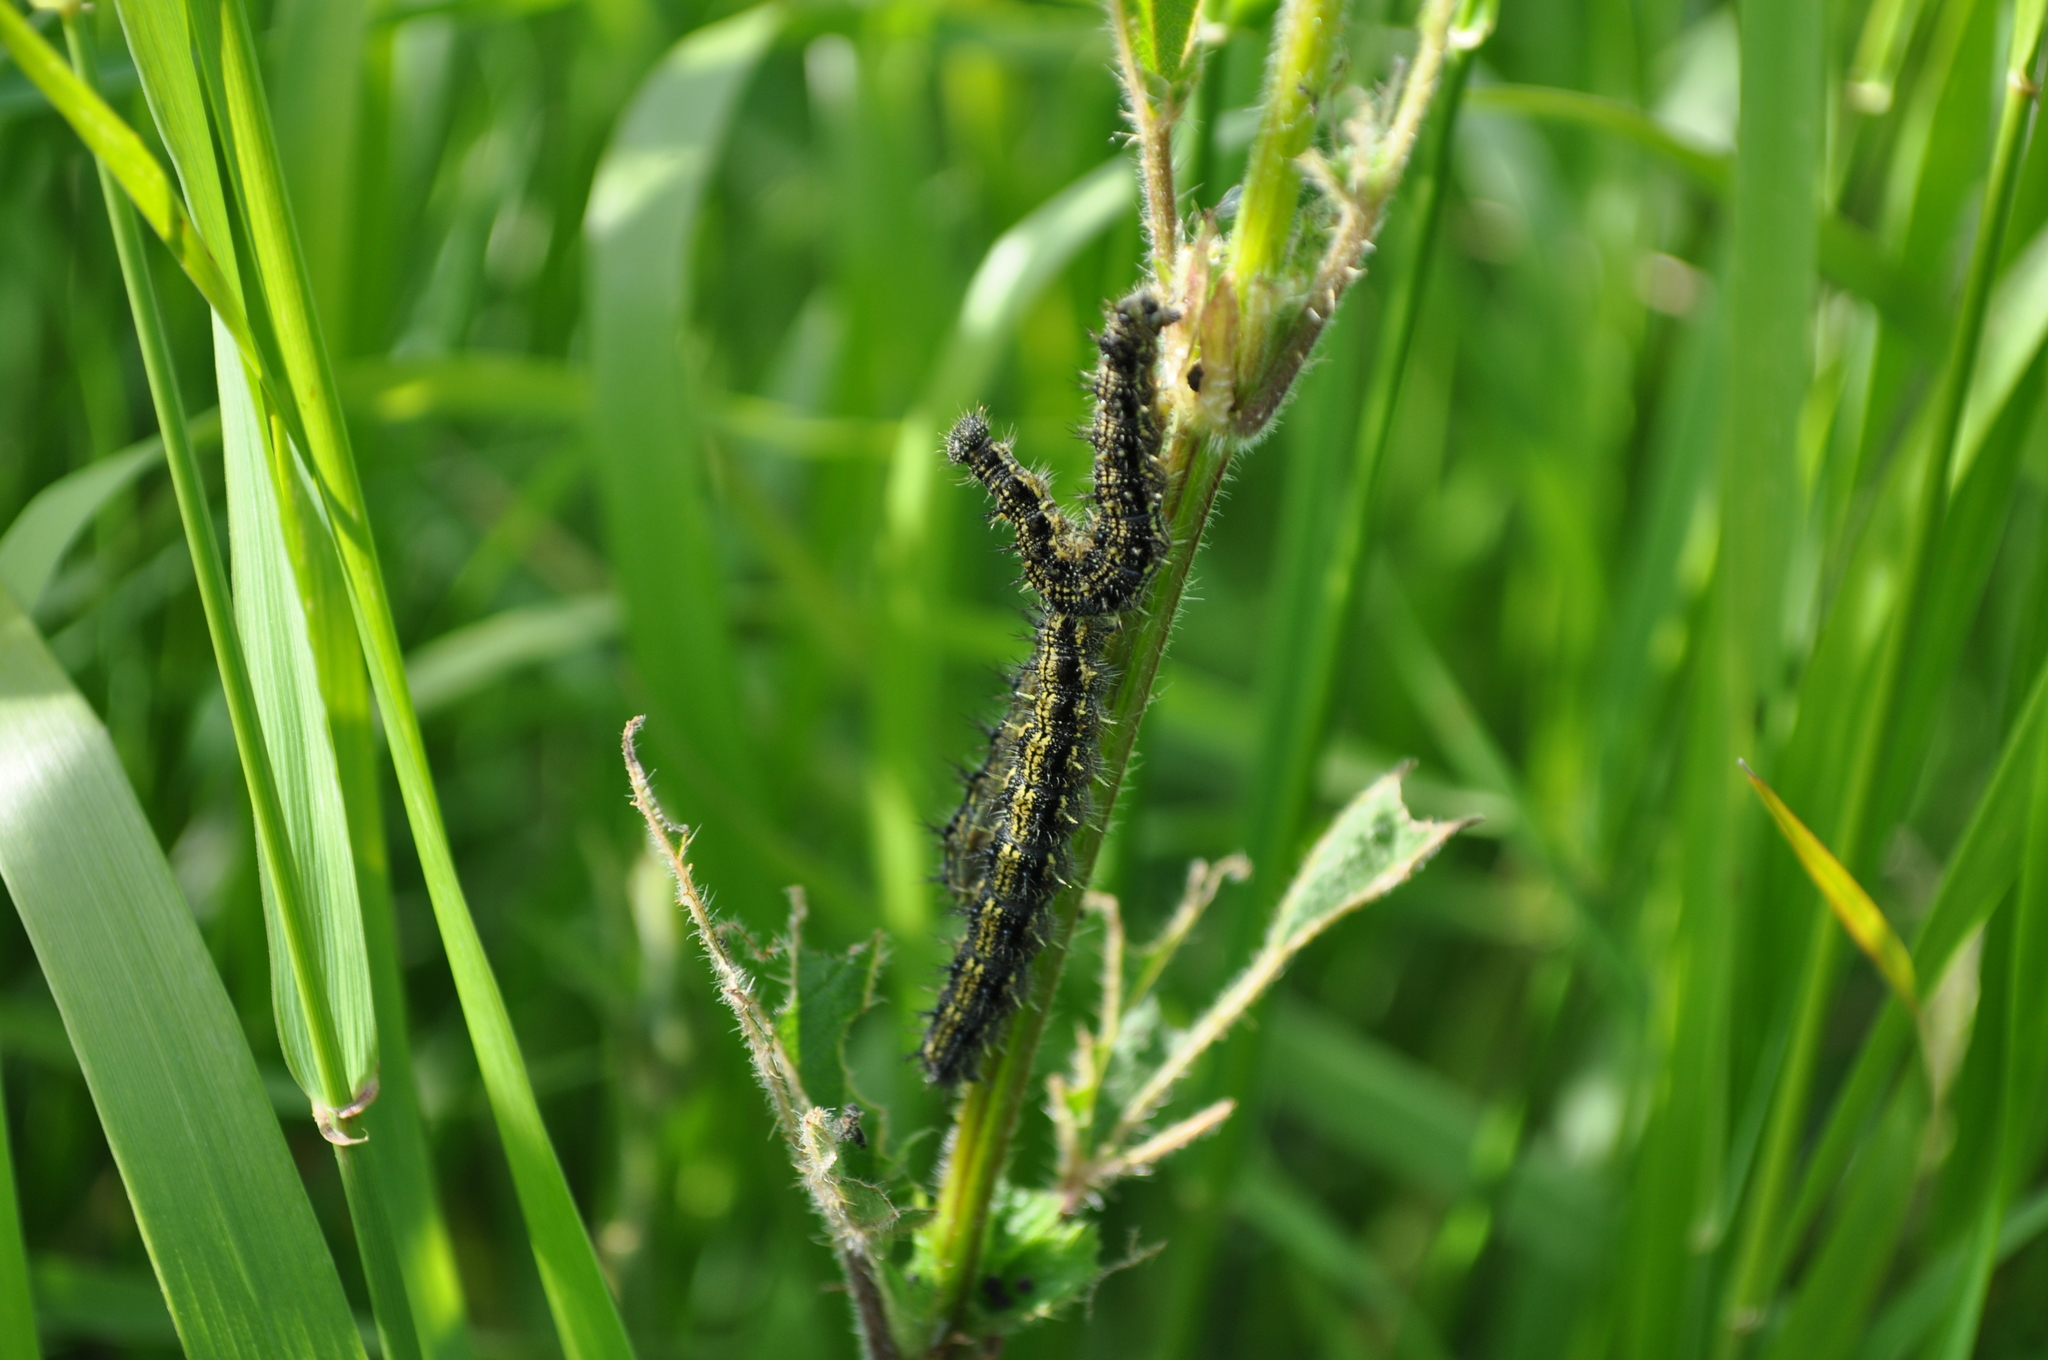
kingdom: Animalia
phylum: Arthropoda
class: Insecta
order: Lepidoptera
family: Nymphalidae
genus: Aglais
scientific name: Aglais urticae
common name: Small tortoiseshell
